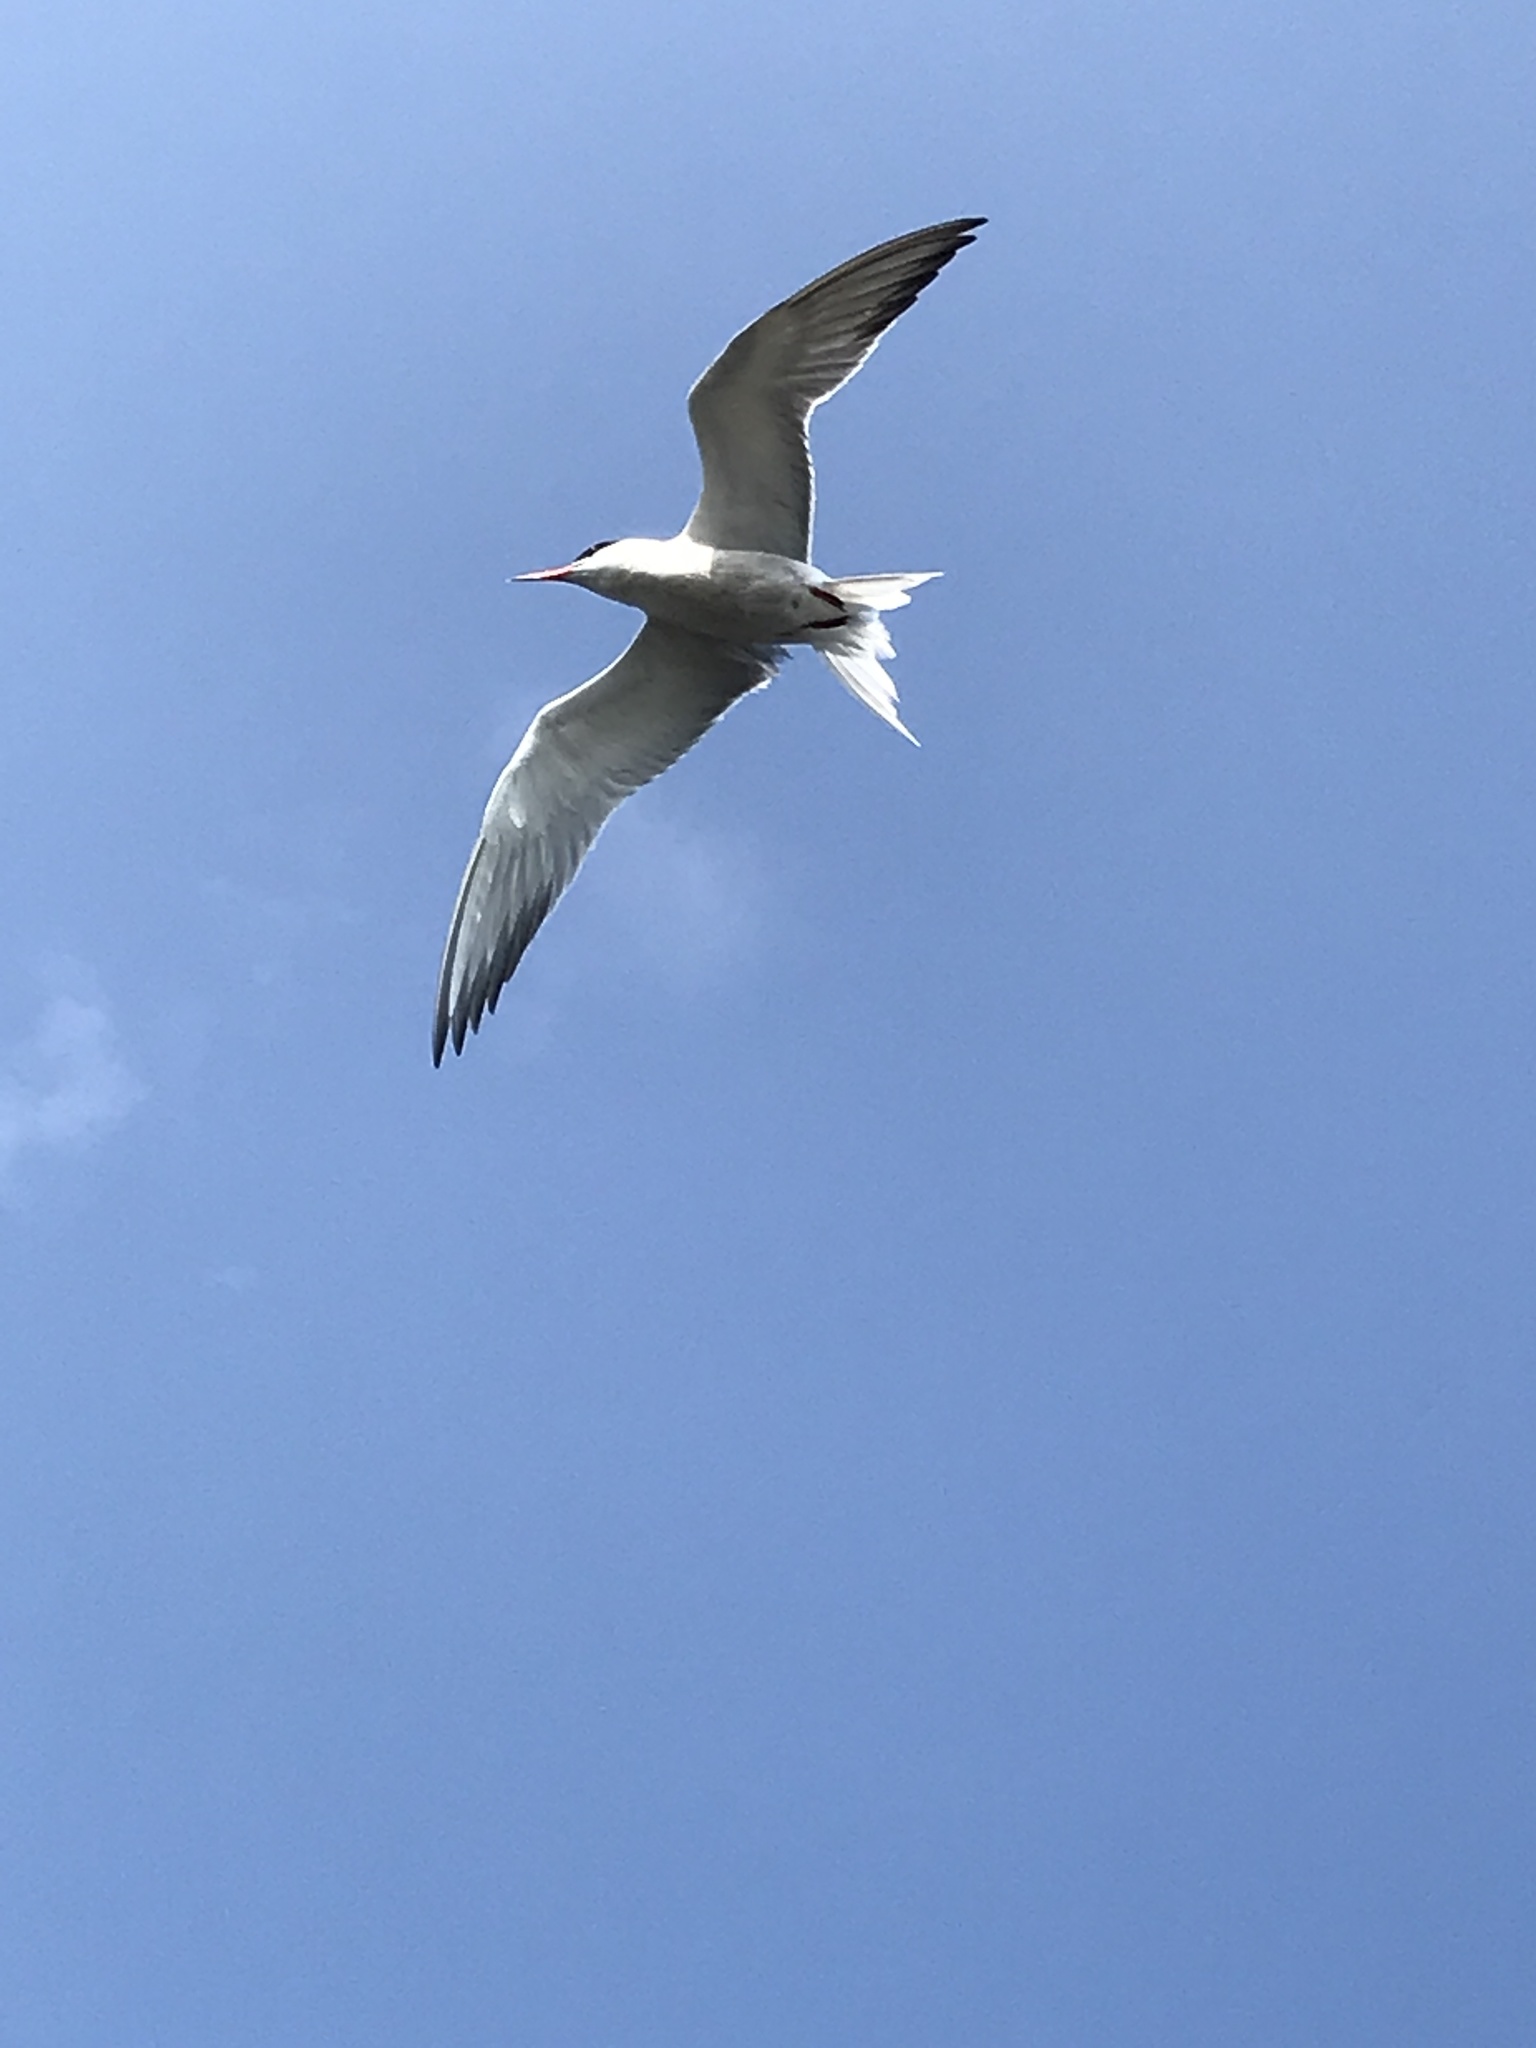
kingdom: Animalia
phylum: Chordata
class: Aves
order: Charadriiformes
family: Laridae
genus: Sterna
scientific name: Sterna hirundo
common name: Common tern
